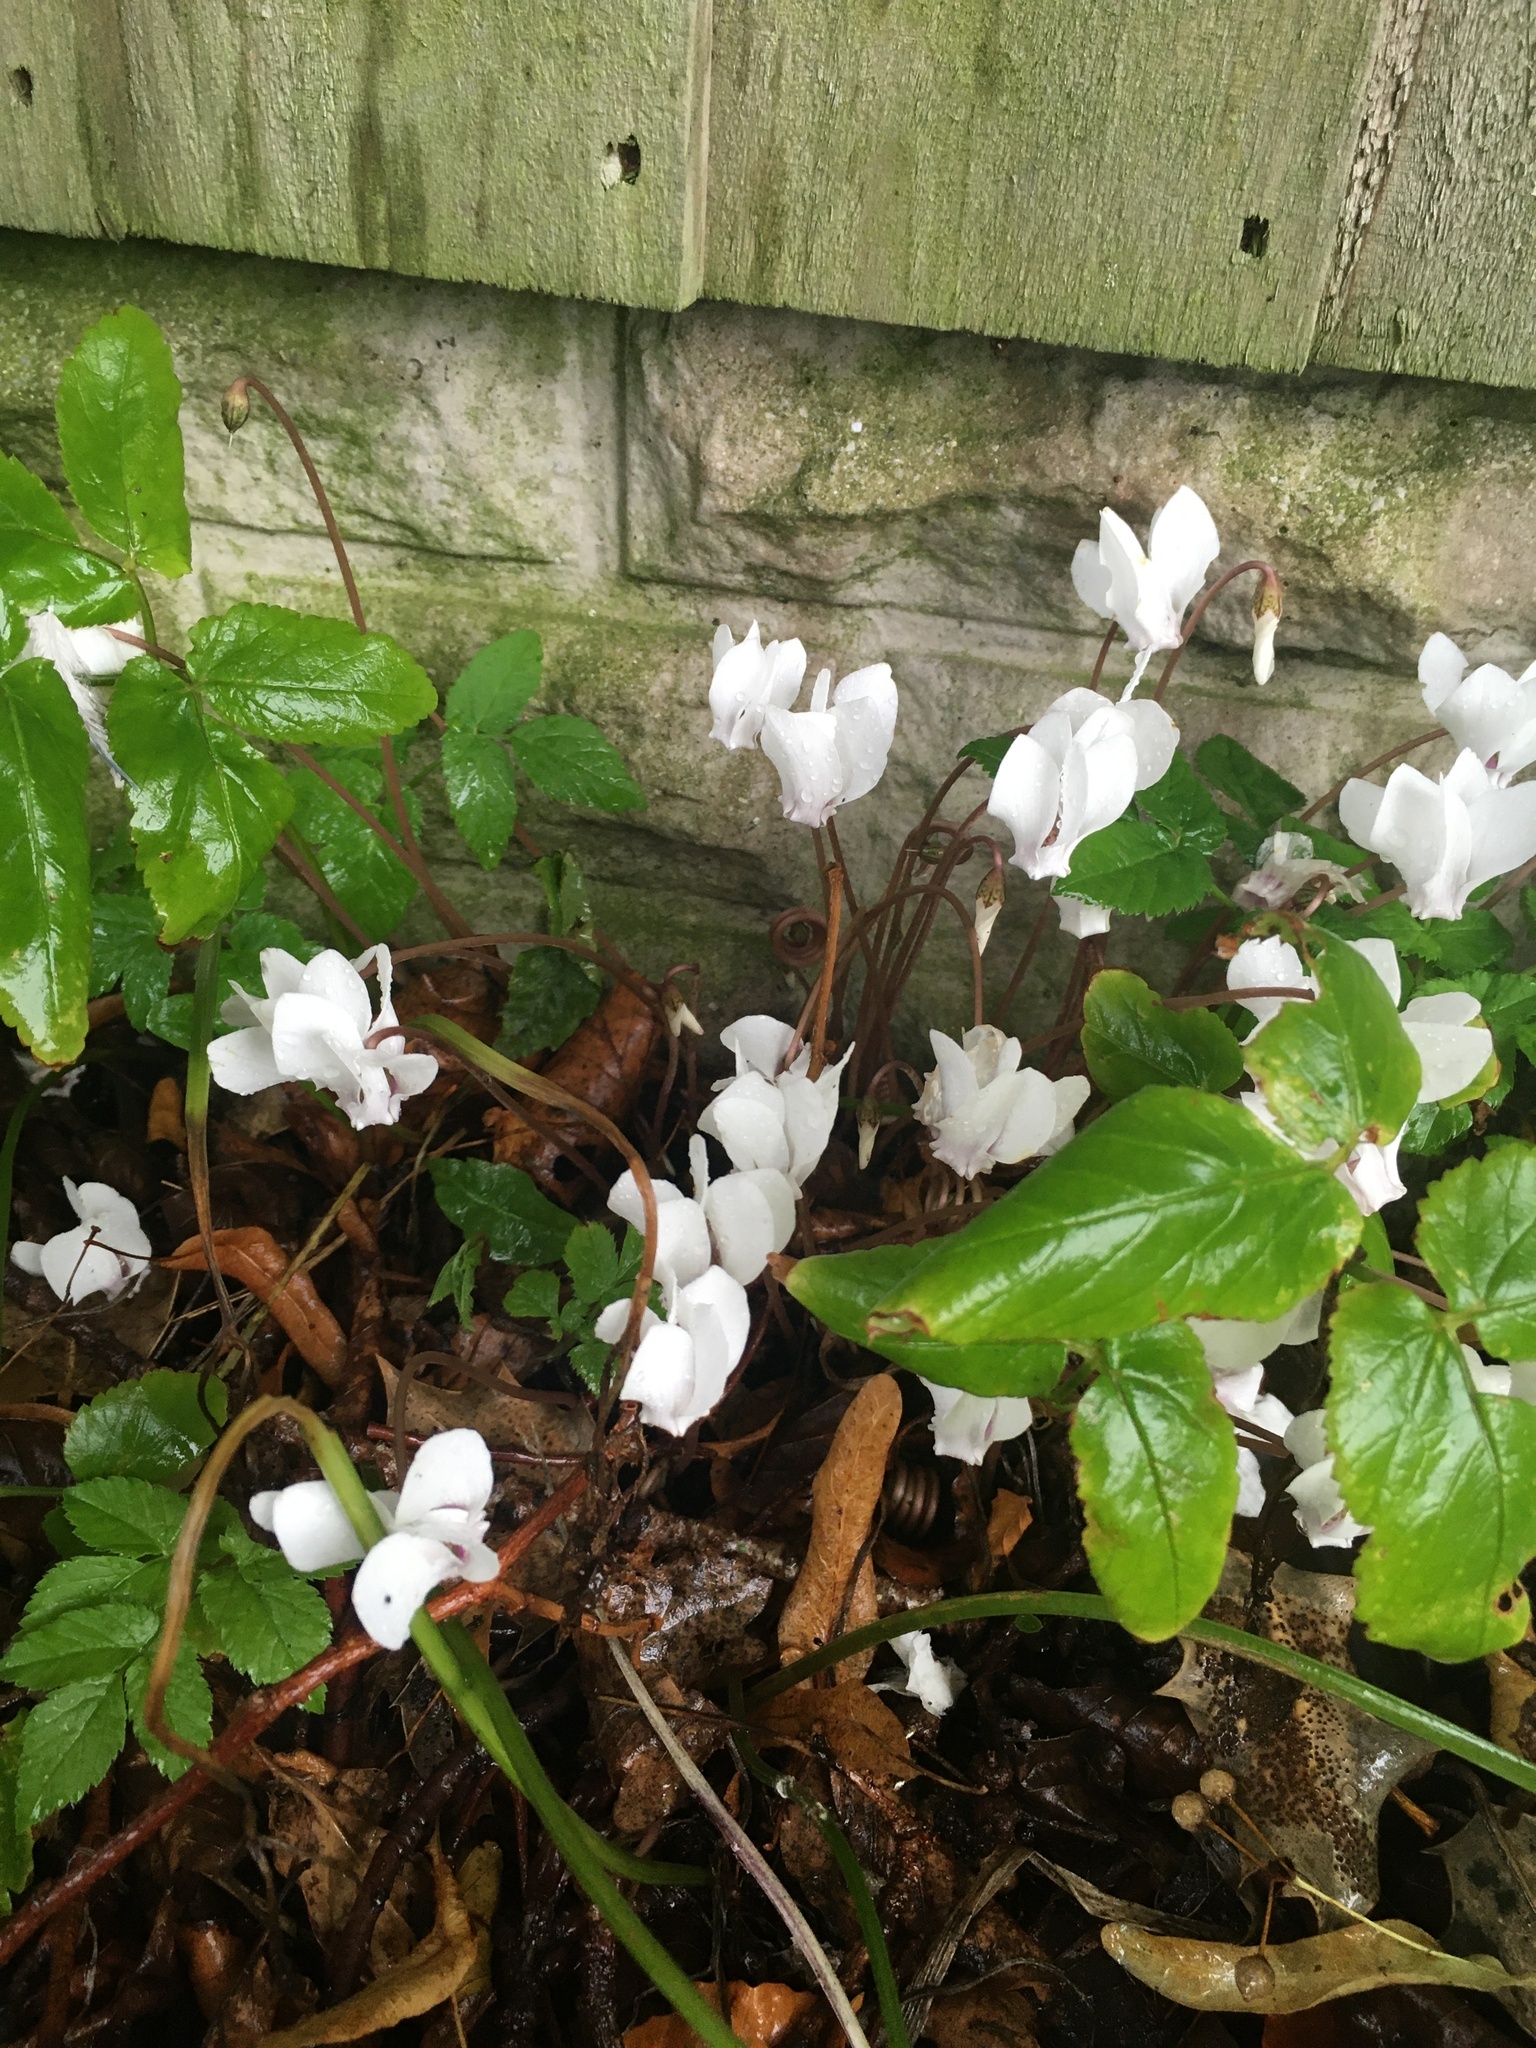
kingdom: Plantae
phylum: Tracheophyta
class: Magnoliopsida
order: Ericales
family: Primulaceae
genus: Cyclamen
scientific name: Cyclamen hederifolium
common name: Sowbread
